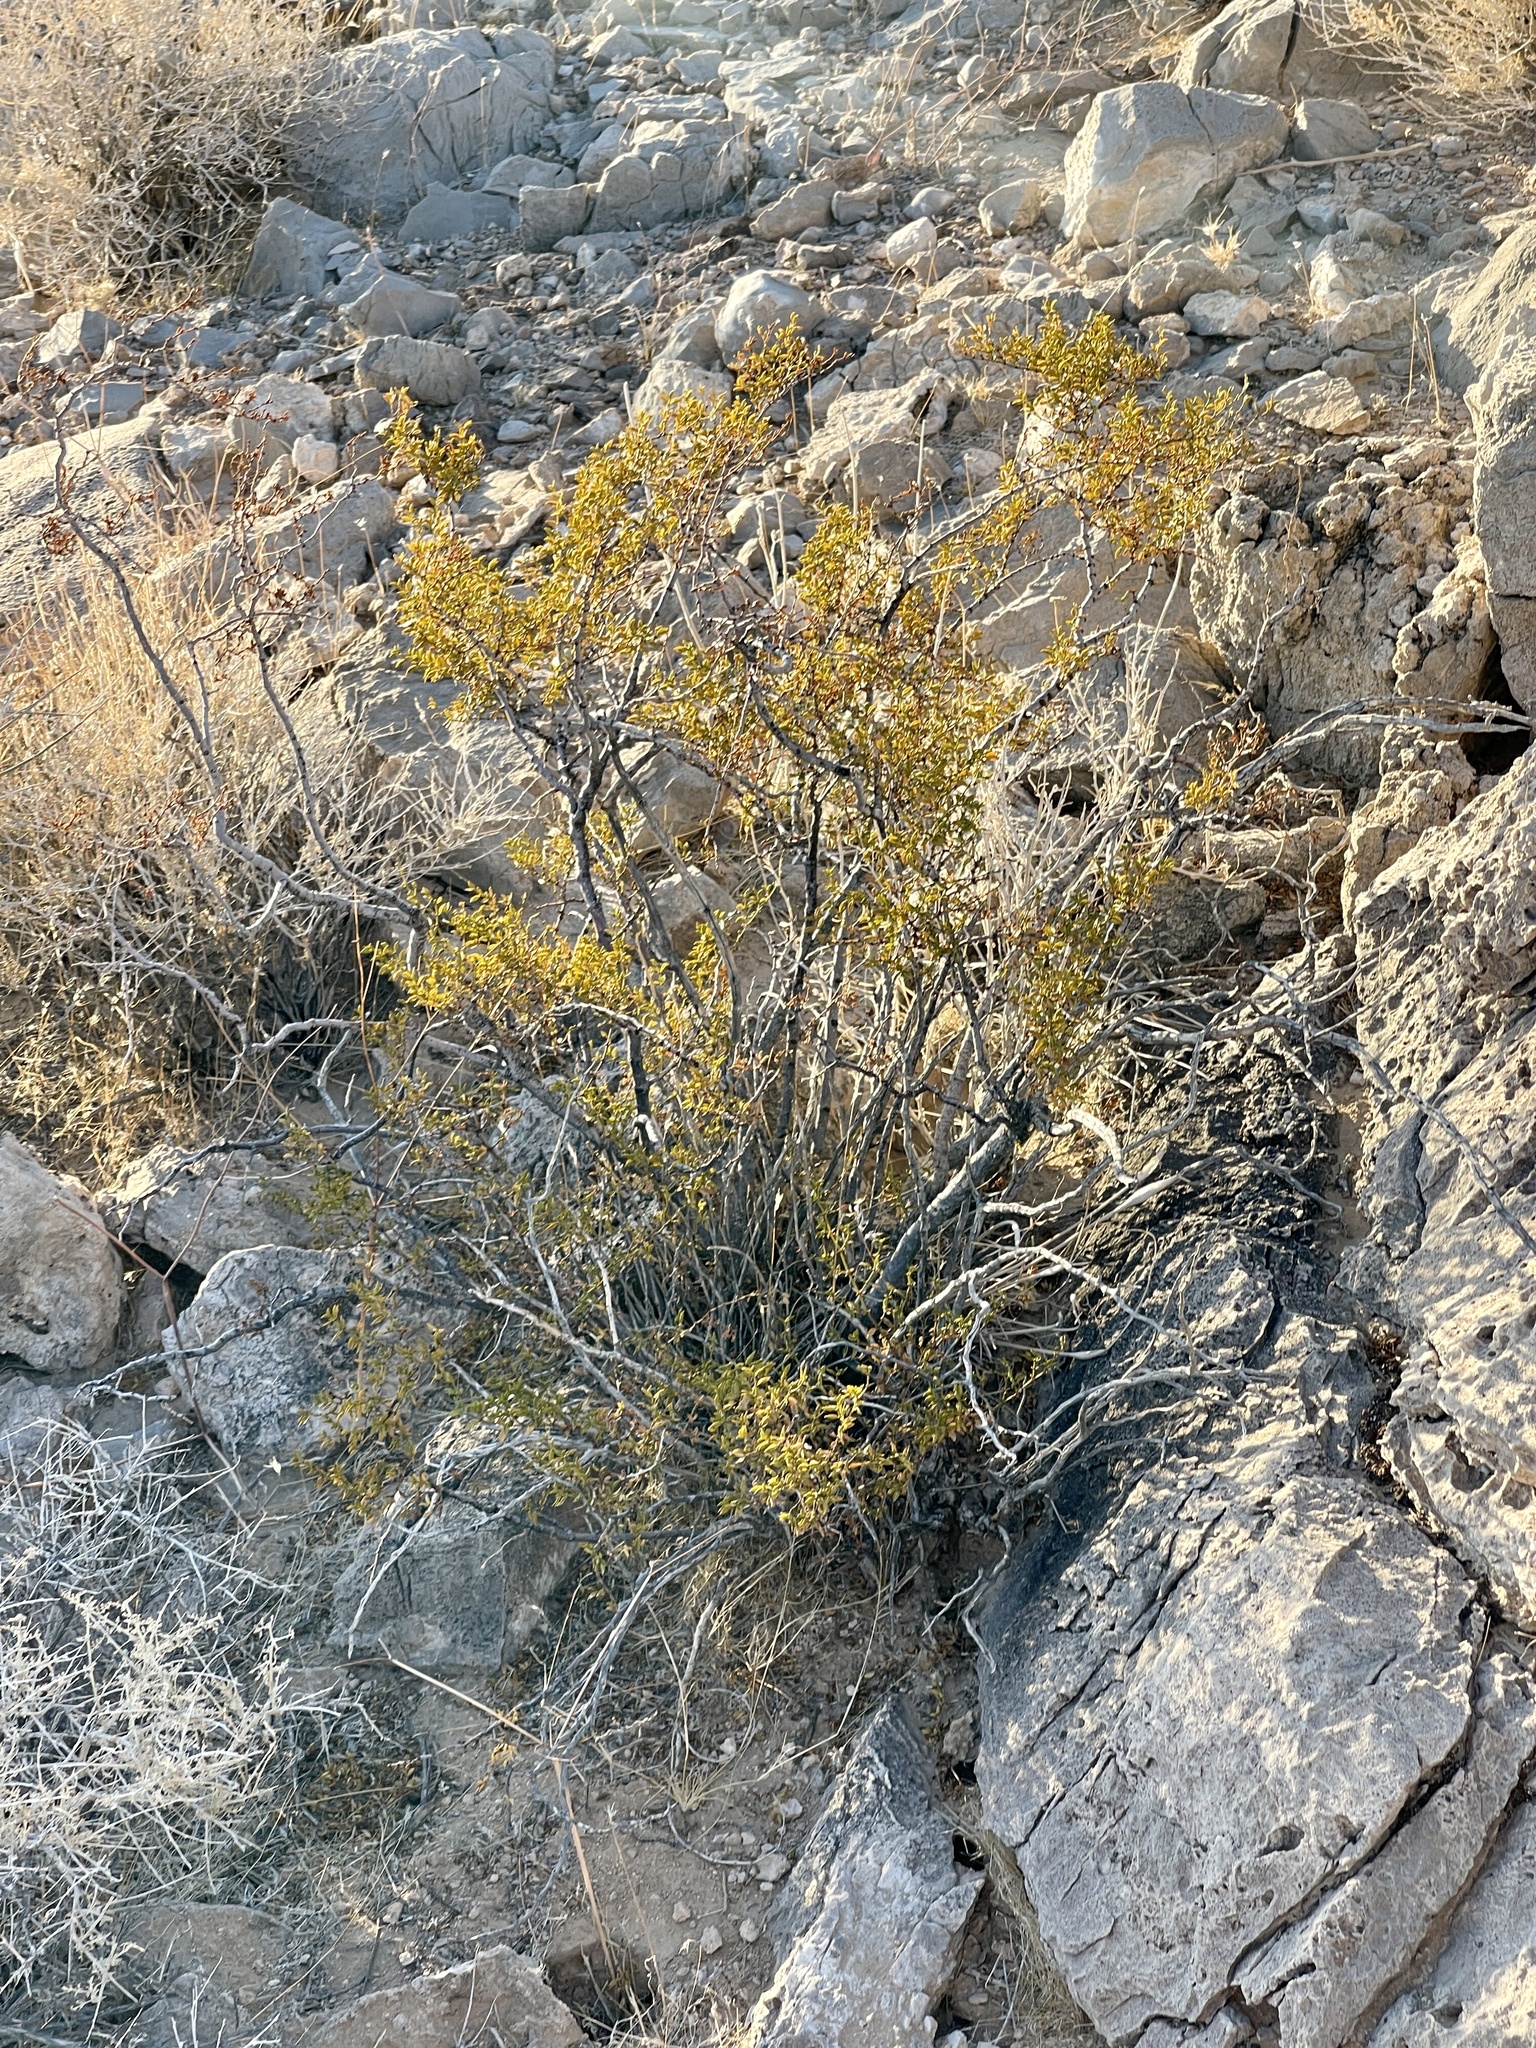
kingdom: Plantae
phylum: Tracheophyta
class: Magnoliopsida
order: Zygophyllales
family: Zygophyllaceae
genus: Larrea
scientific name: Larrea tridentata
